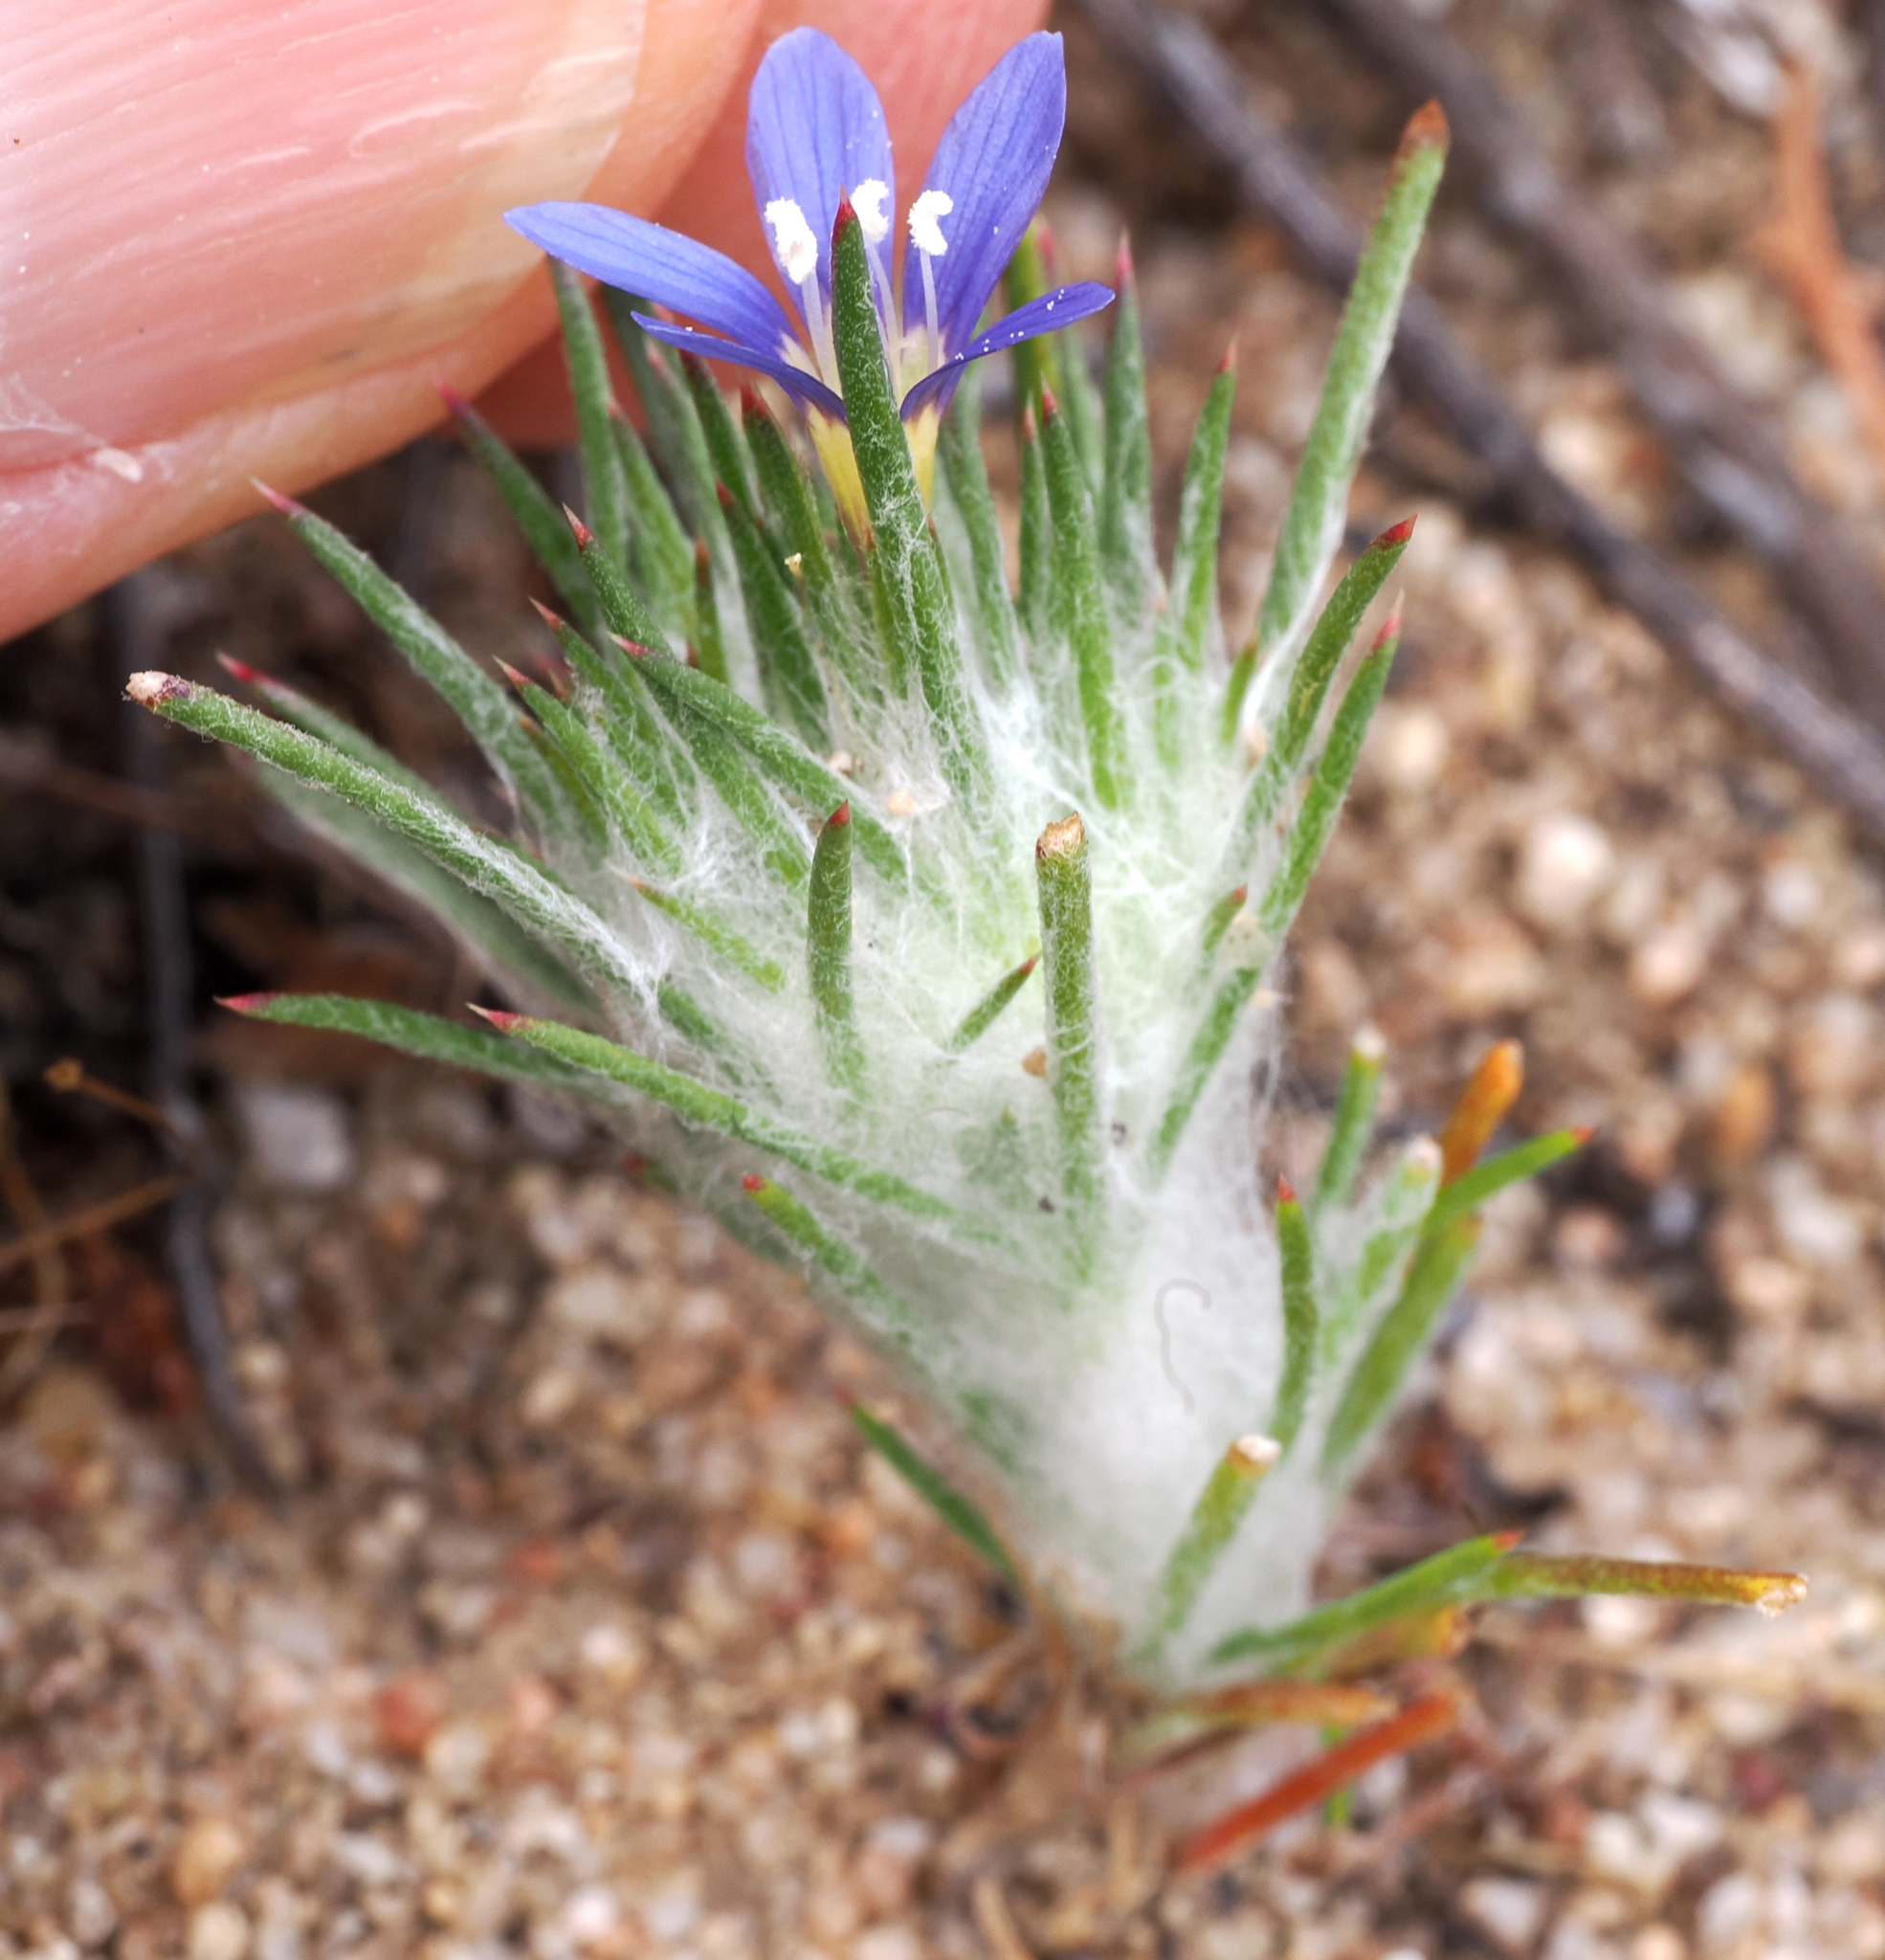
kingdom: Plantae
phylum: Tracheophyta
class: Magnoliopsida
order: Ericales
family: Polemoniaceae
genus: Eriastrum
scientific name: Eriastrum virgatum
